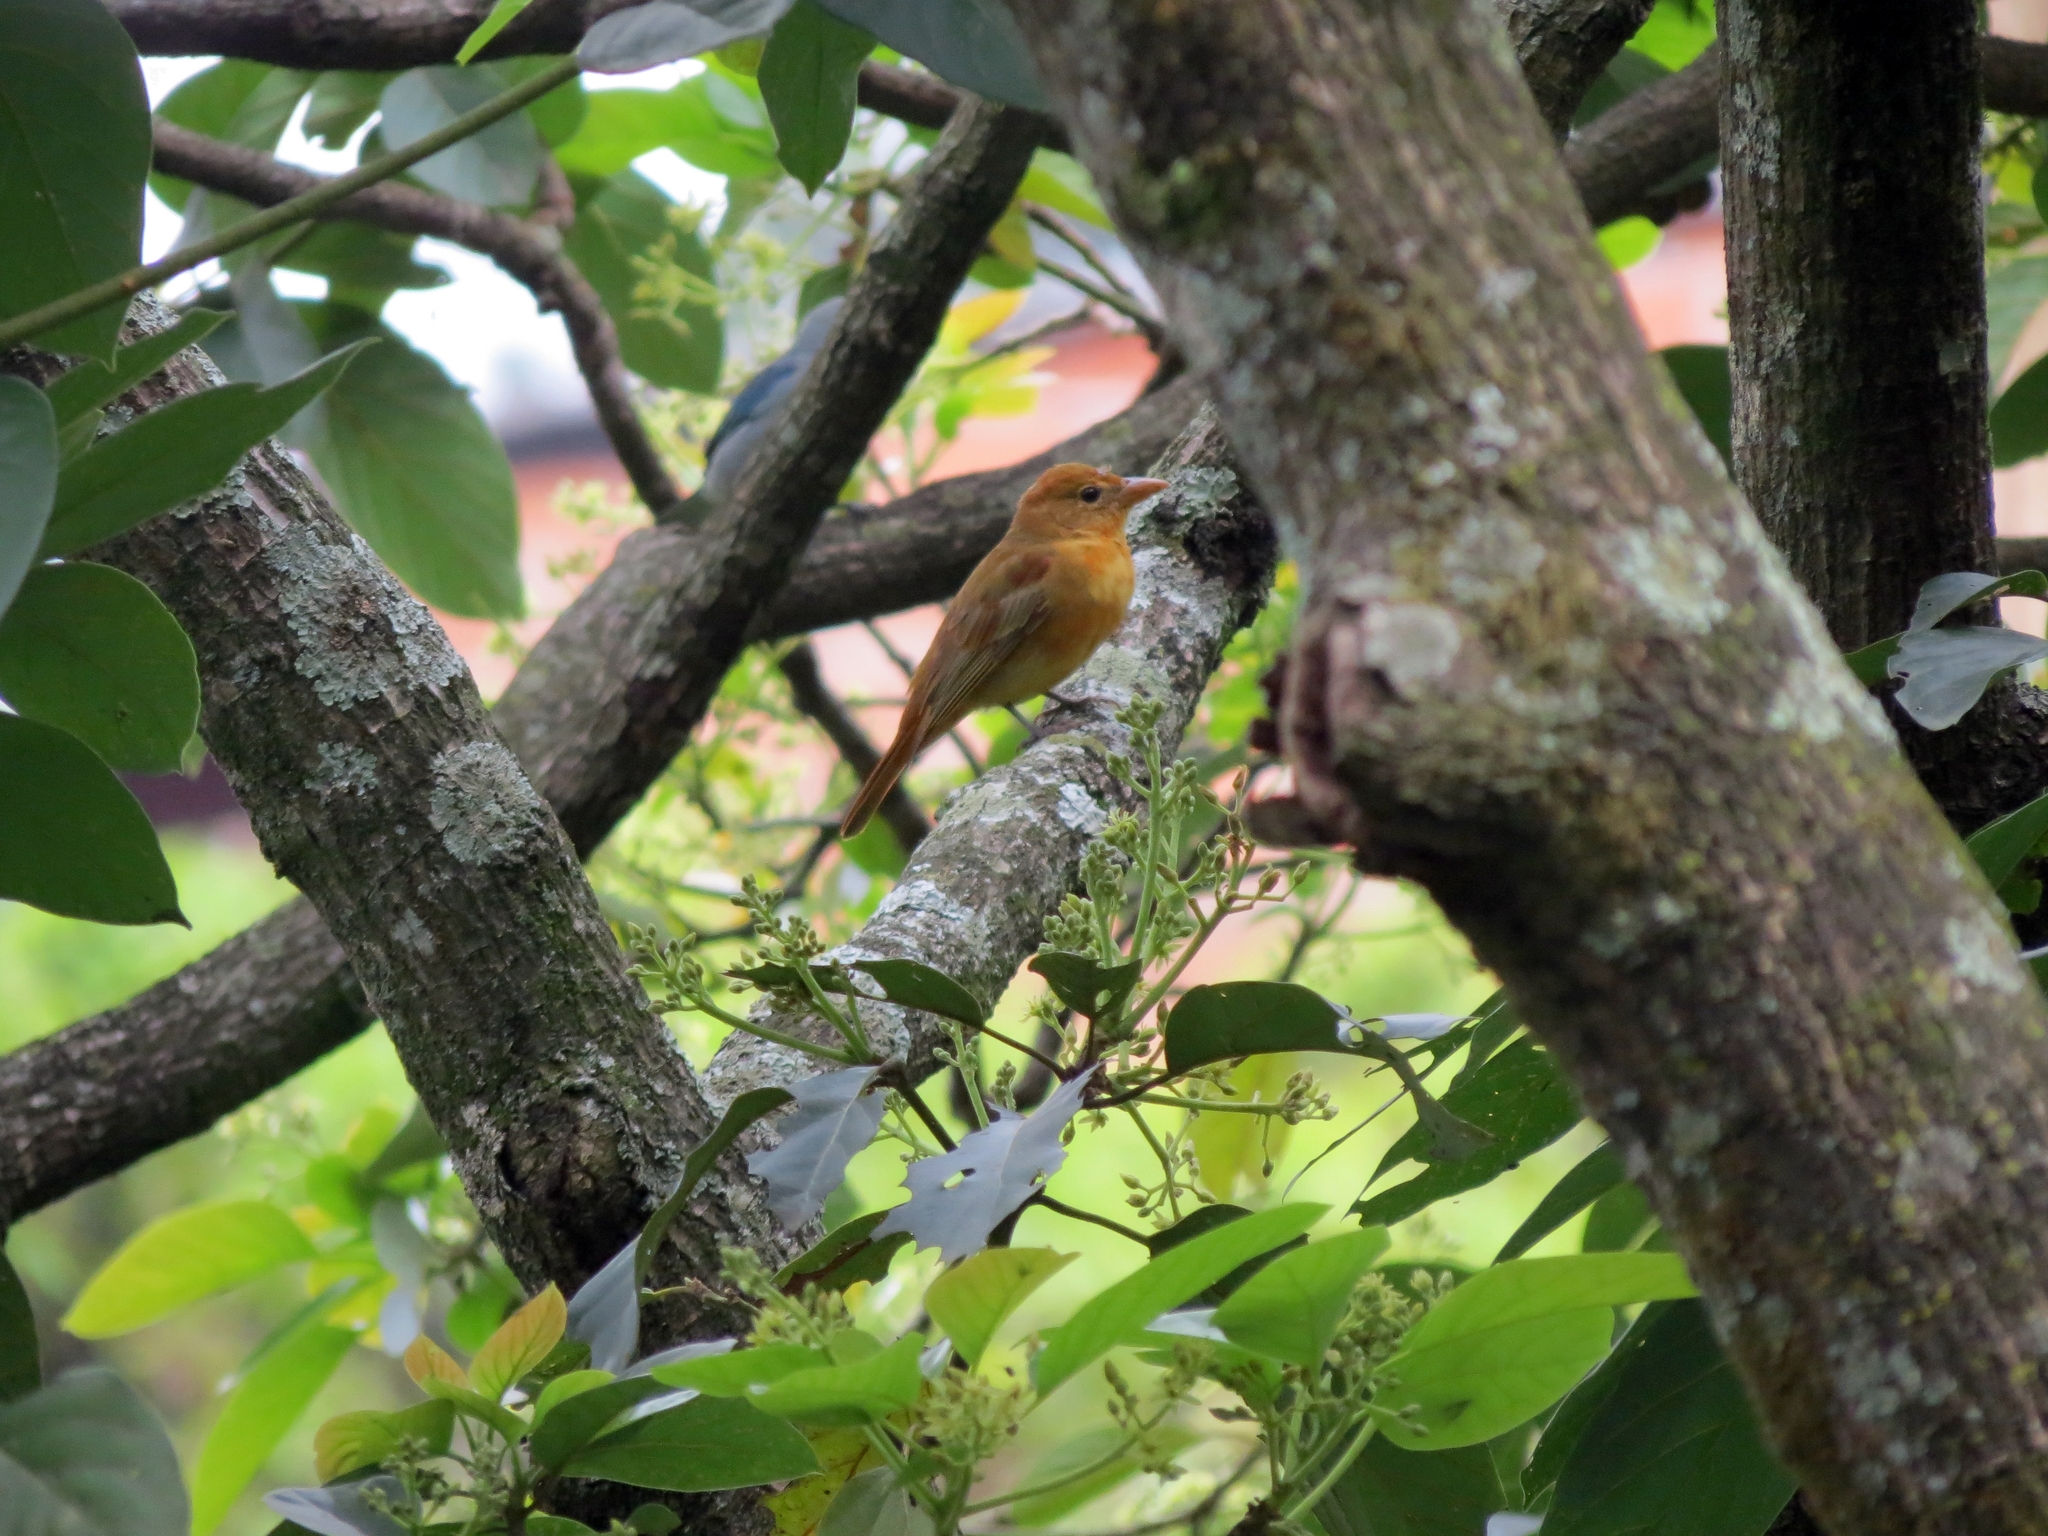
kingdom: Animalia
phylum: Chordata
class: Aves
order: Passeriformes
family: Cardinalidae
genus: Piranga
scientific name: Piranga rubra
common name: Summer tanager
